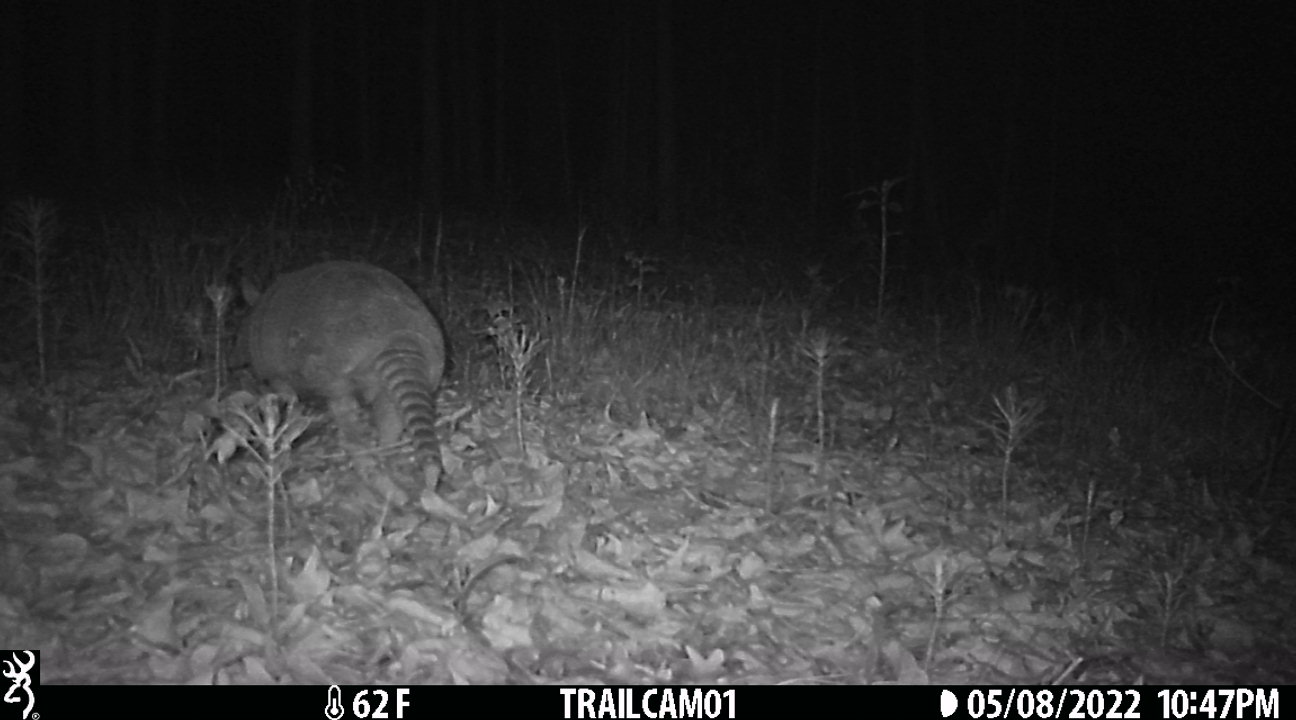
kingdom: Animalia
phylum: Chordata
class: Mammalia
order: Cingulata
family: Dasypodidae
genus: Dasypus
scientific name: Dasypus novemcinctus
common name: Nine-banded armadillo
